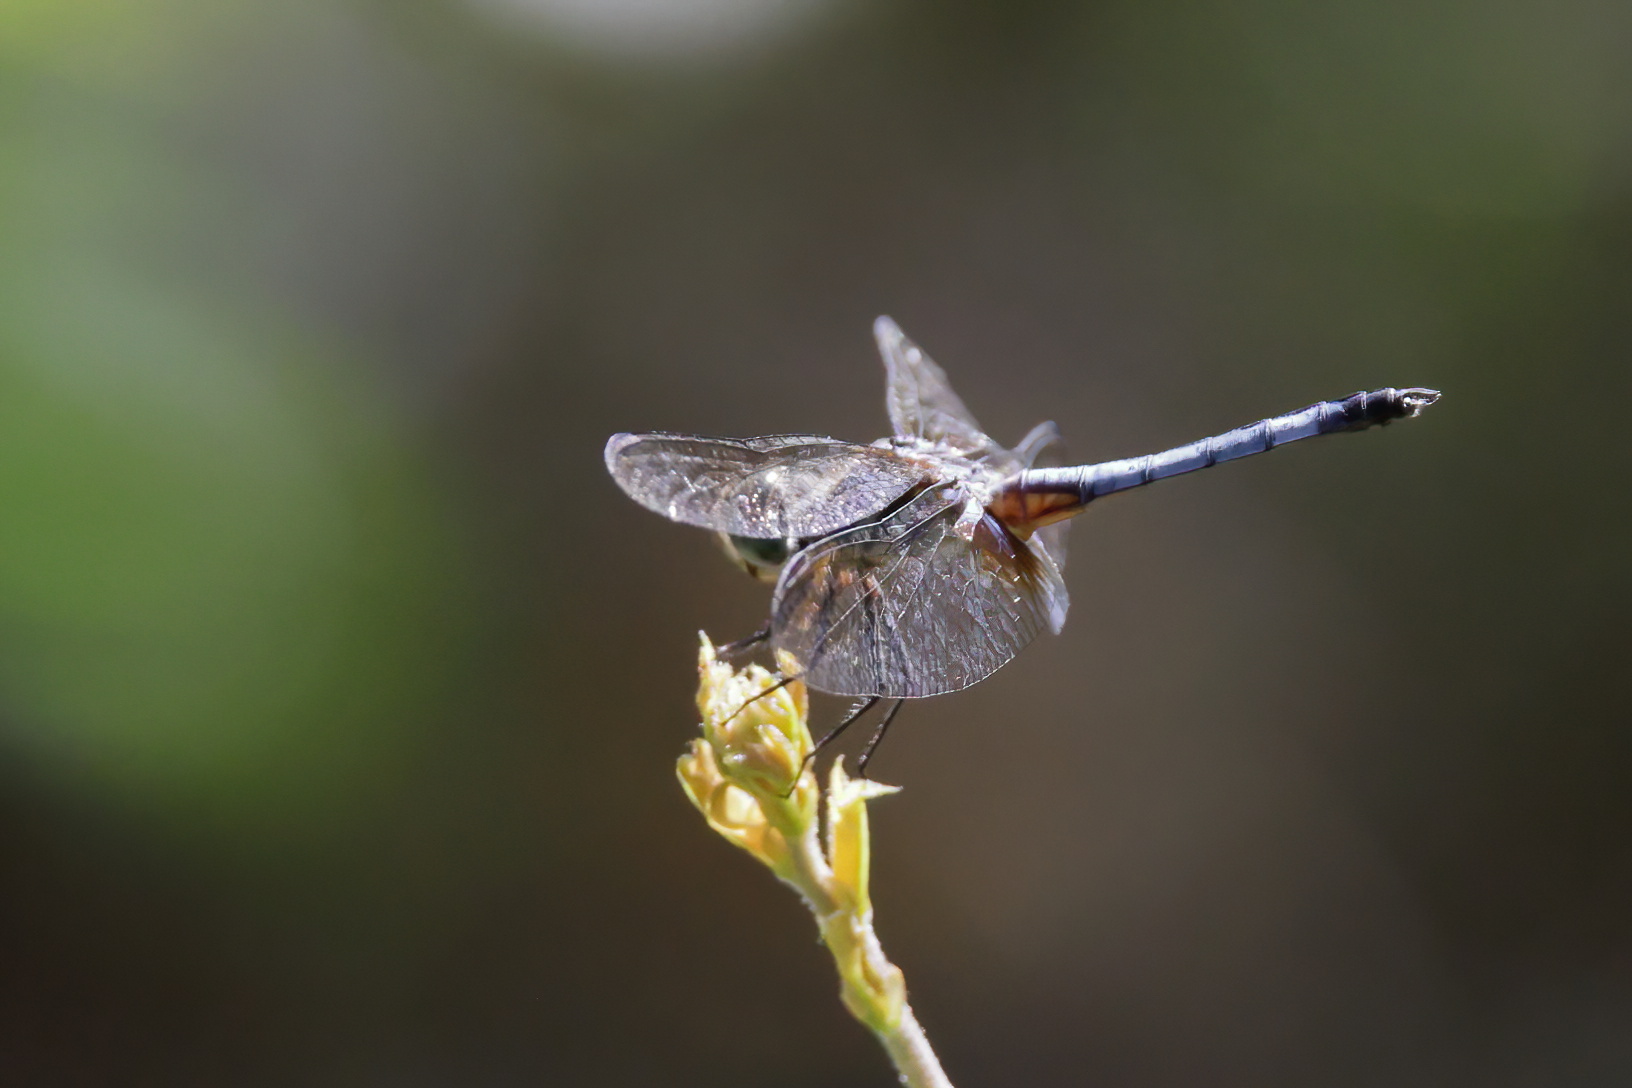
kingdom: Animalia
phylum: Arthropoda
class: Insecta
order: Odonata
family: Libellulidae
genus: Pachydiplax
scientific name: Pachydiplax longipennis
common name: Blue dasher
